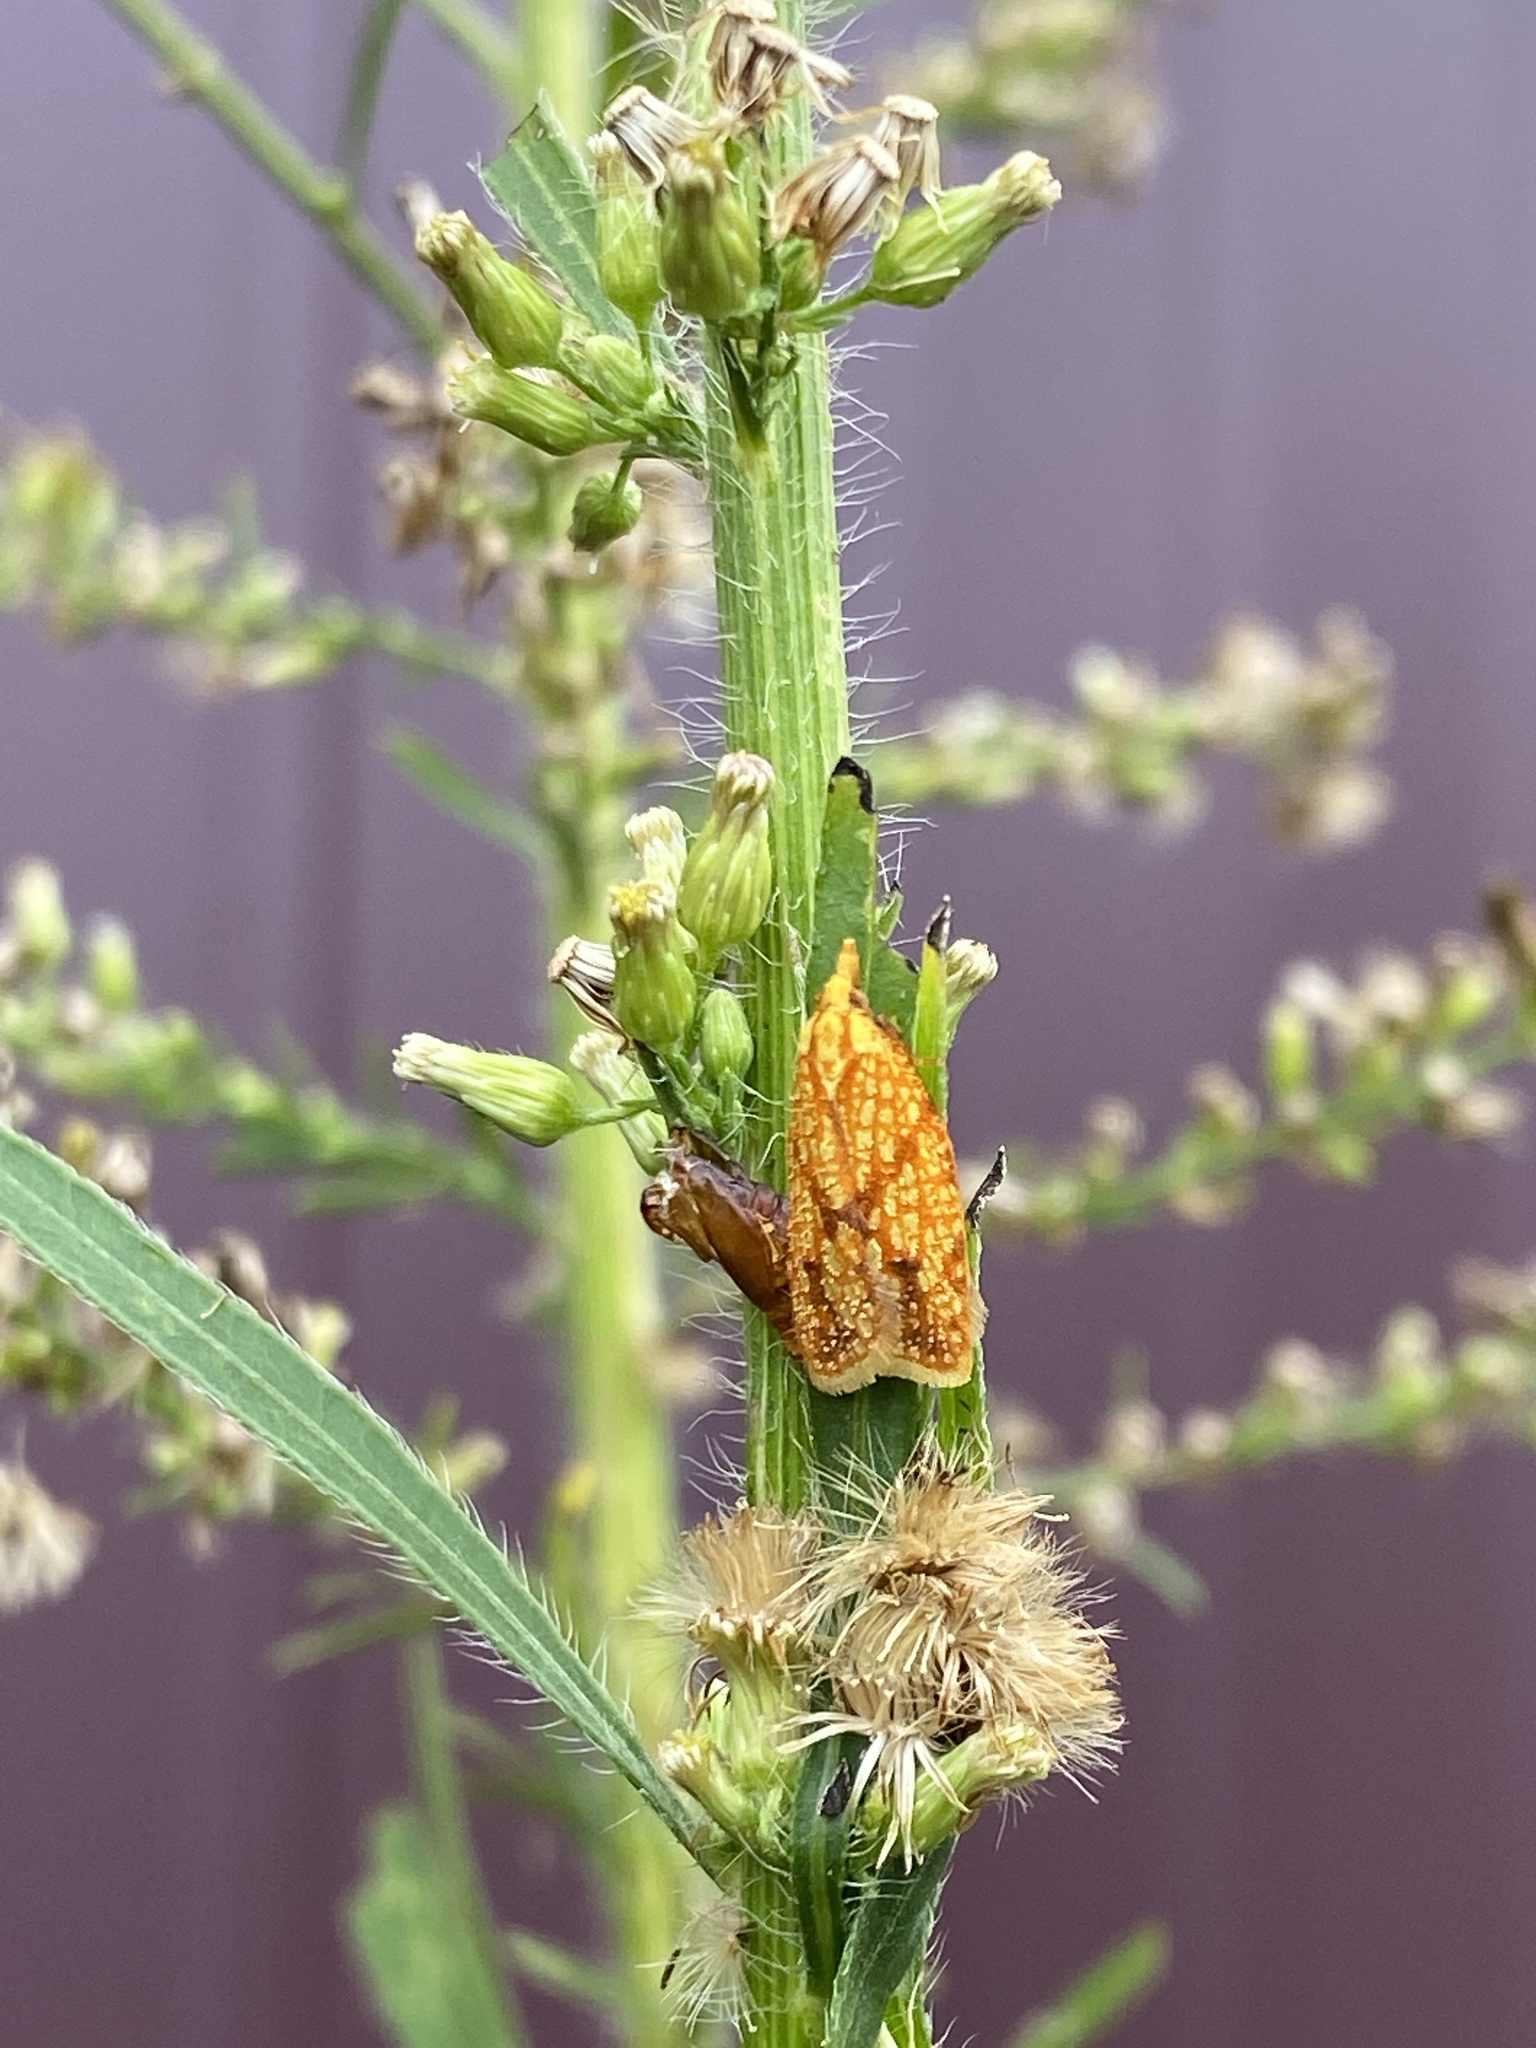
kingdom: Animalia
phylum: Arthropoda
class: Insecta
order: Lepidoptera
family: Tortricidae
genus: Sparganothis
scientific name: Sparganothis sulfureana
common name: Sparganothis fruitworm moth
